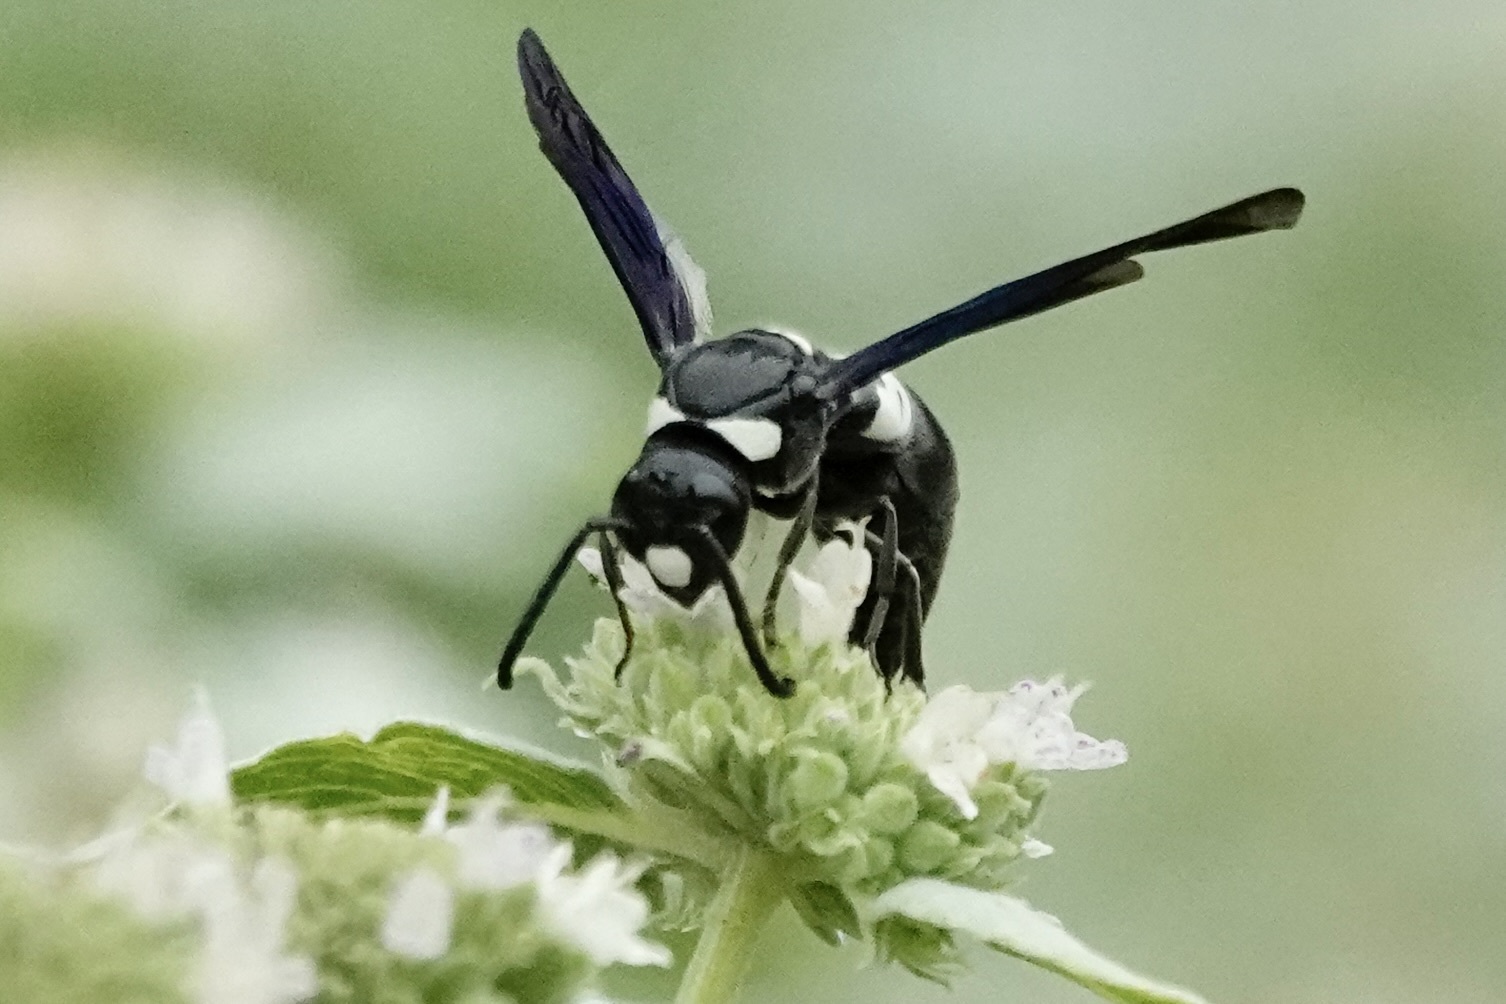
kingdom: Animalia
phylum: Arthropoda
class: Insecta
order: Hymenoptera
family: Eumenidae
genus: Monobia
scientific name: Monobia quadridens
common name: Four-toothed mason wasp
